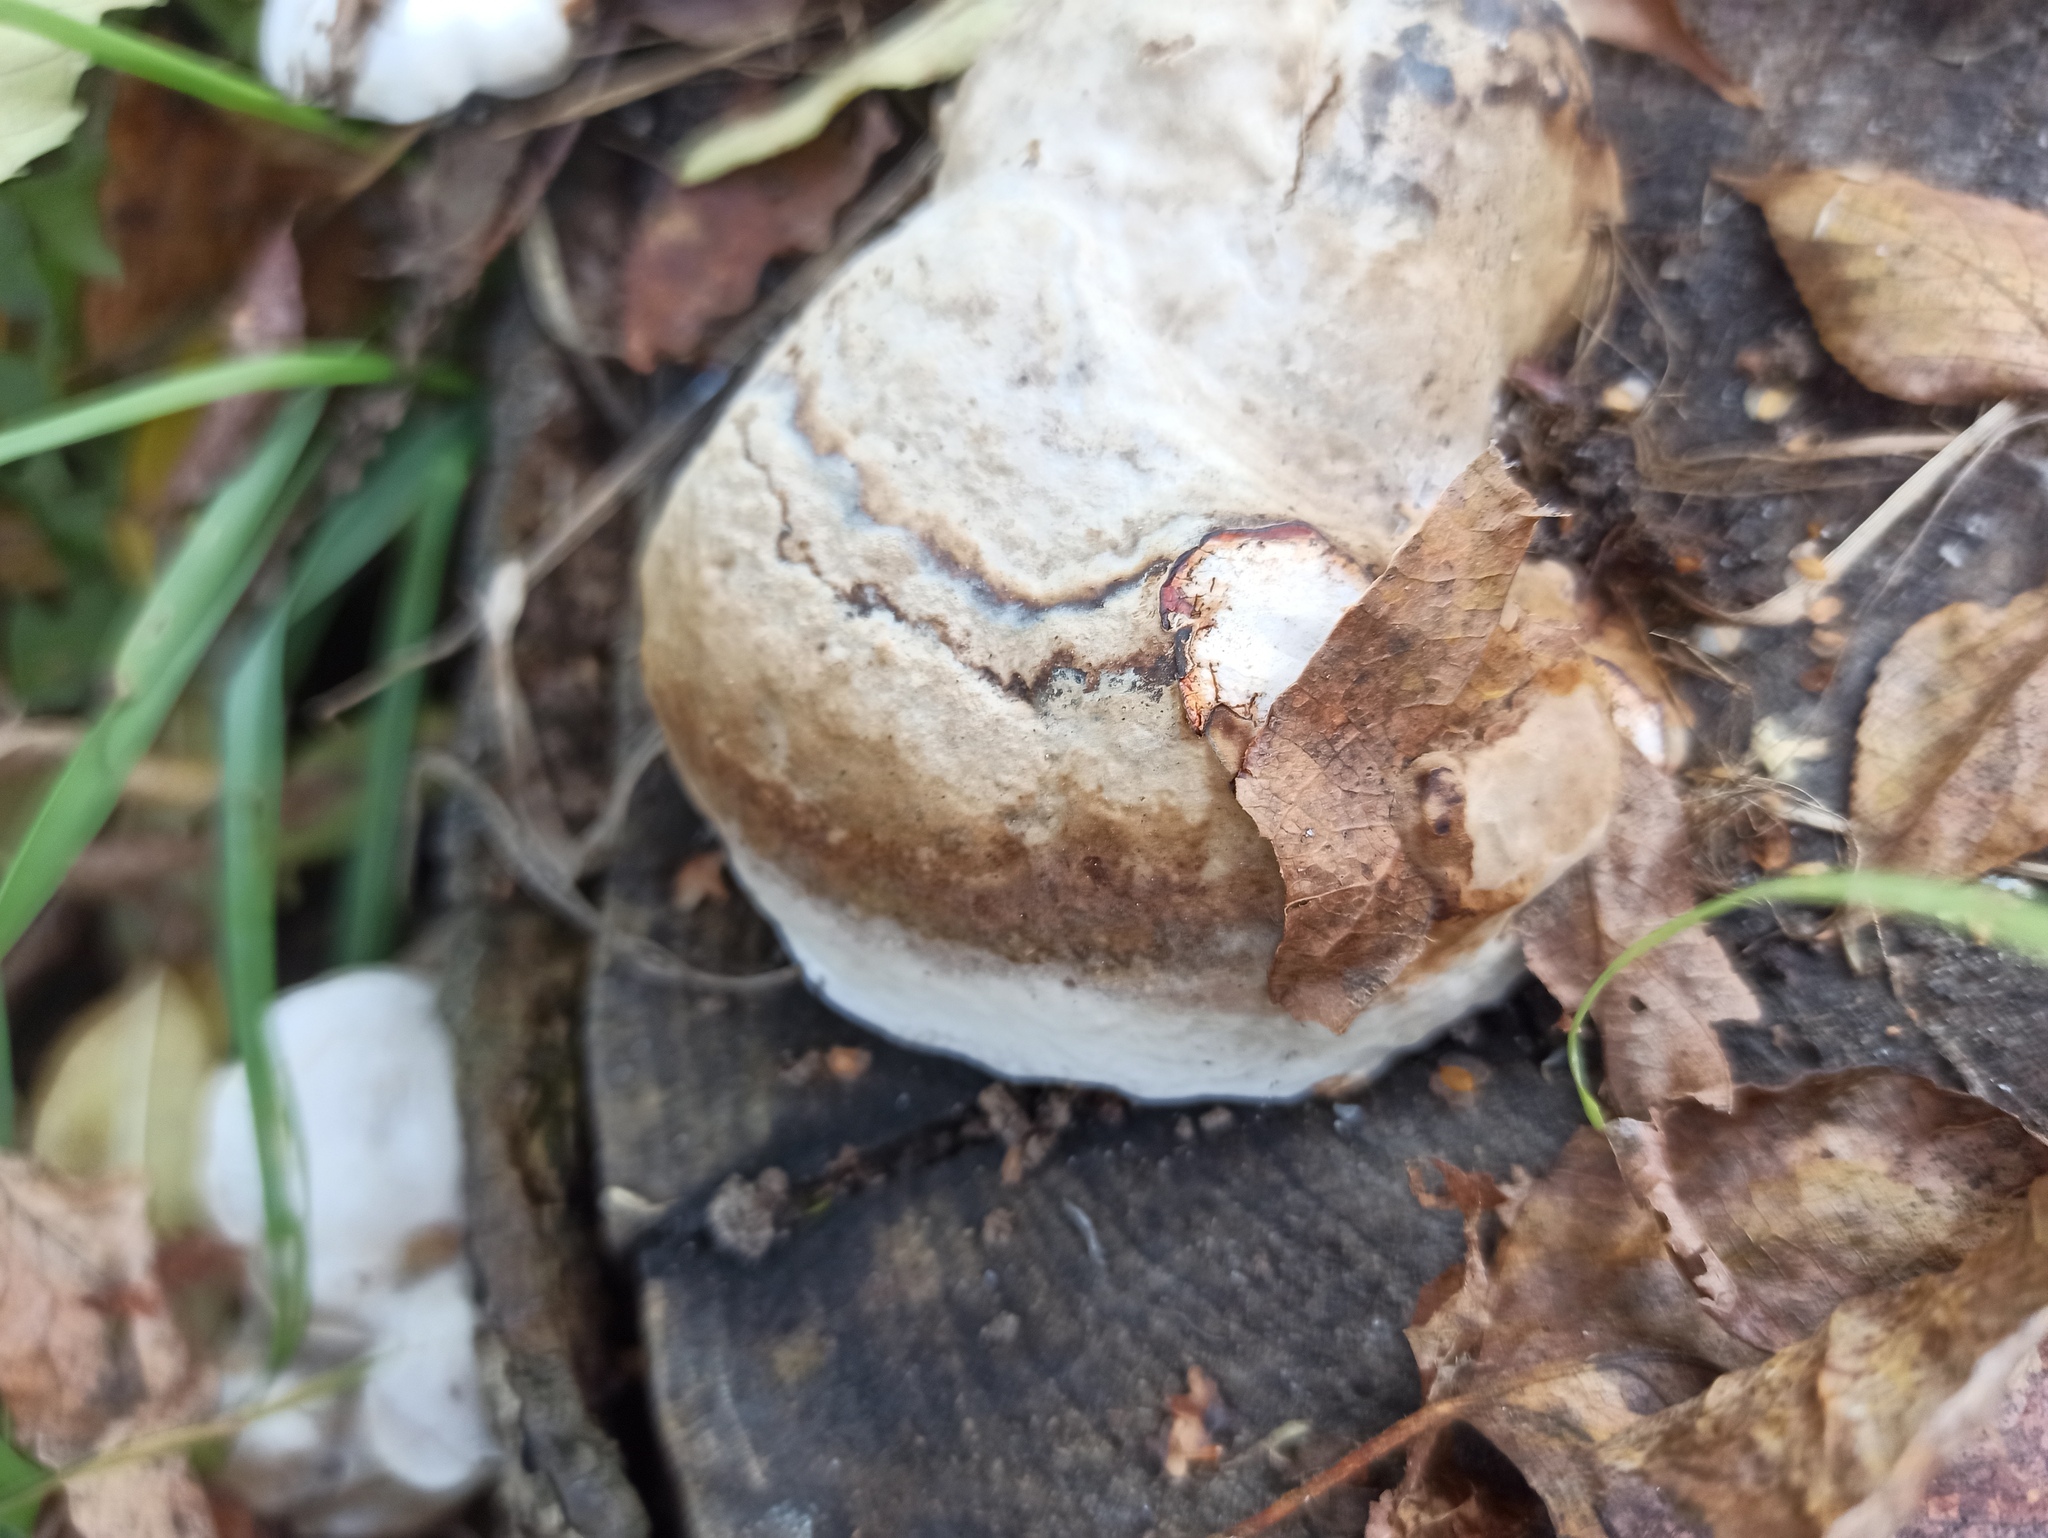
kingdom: Fungi
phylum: Basidiomycota
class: Agaricomycetes
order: Polyporales
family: Polyporaceae
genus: Fomes
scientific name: Fomes fomentarius
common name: Hoof fungus
